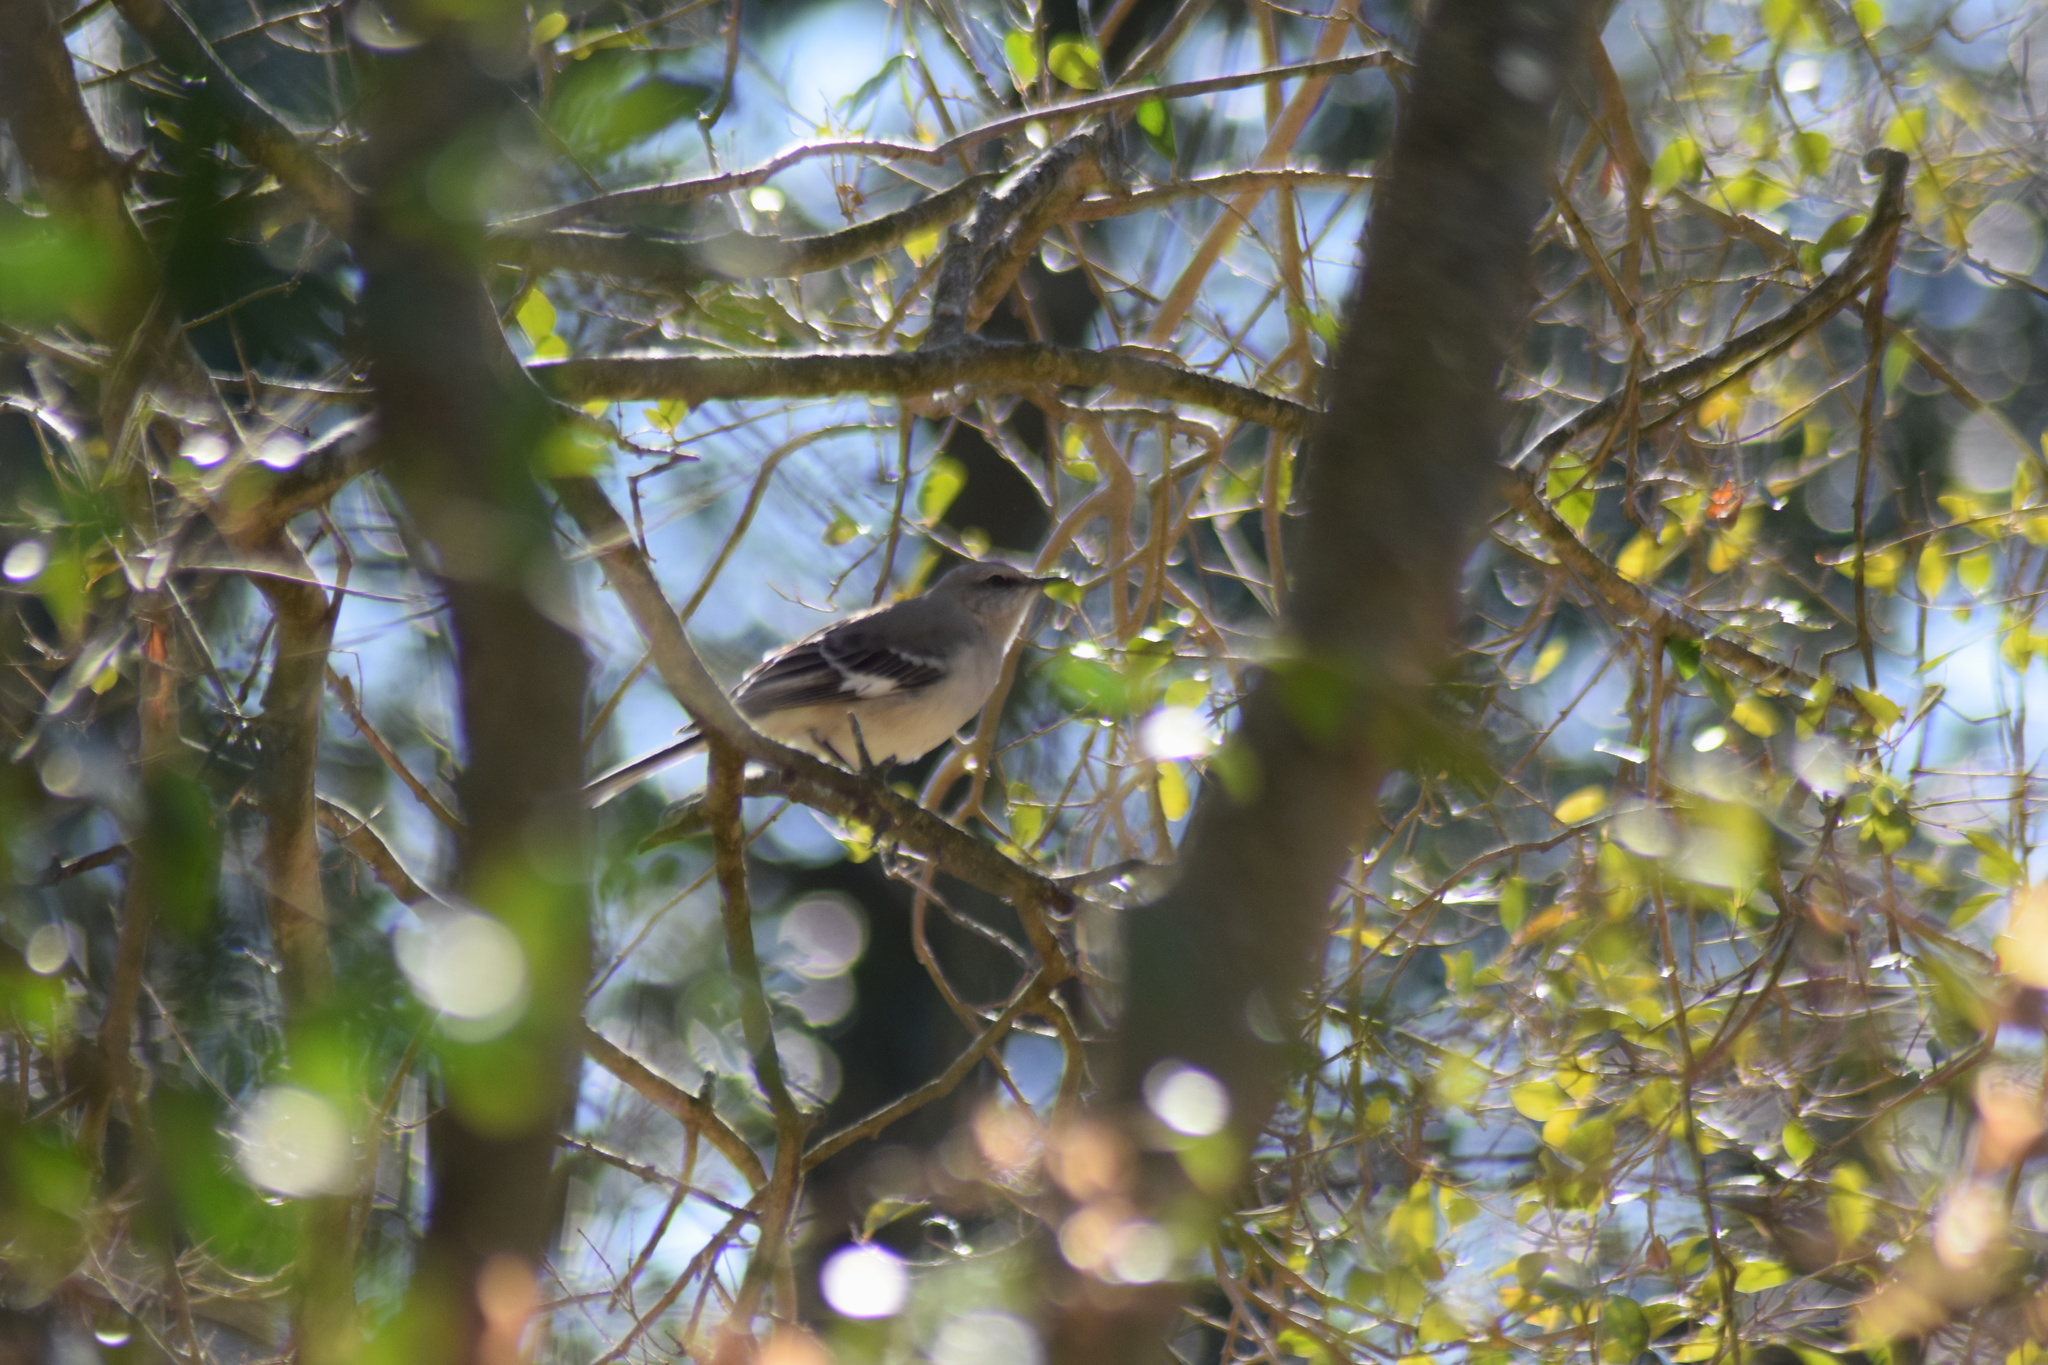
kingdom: Animalia
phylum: Chordata
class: Aves
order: Passeriformes
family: Mimidae
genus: Mimus
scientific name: Mimus polyglottos
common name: Northern mockingbird
